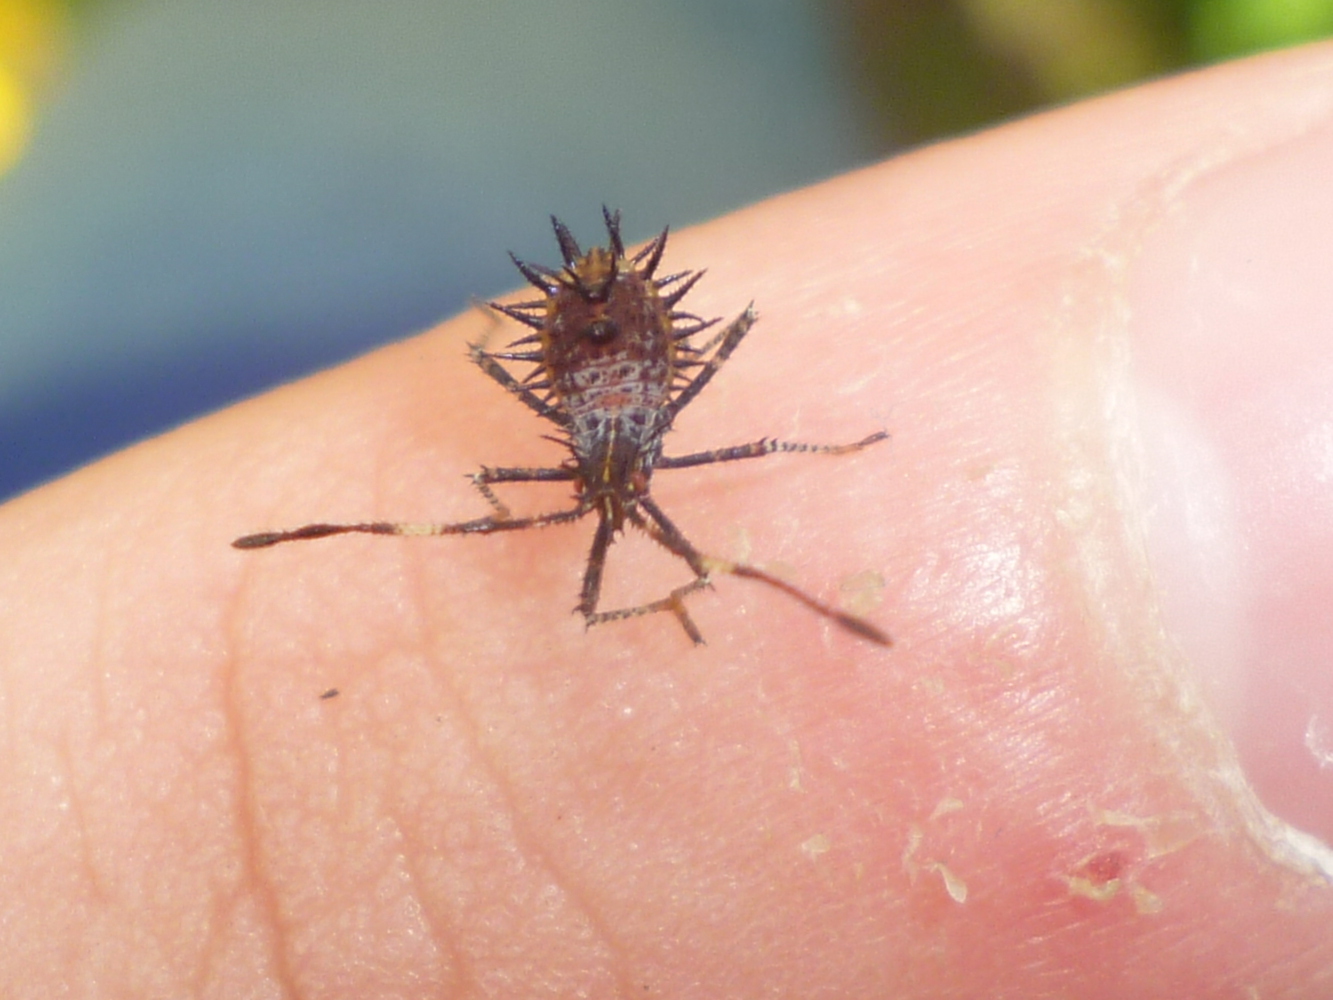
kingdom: Animalia
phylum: Arthropoda
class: Insecta
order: Hemiptera
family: Coreidae
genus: Euthochtha
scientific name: Euthochtha galeator
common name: Helmeted squash bug
